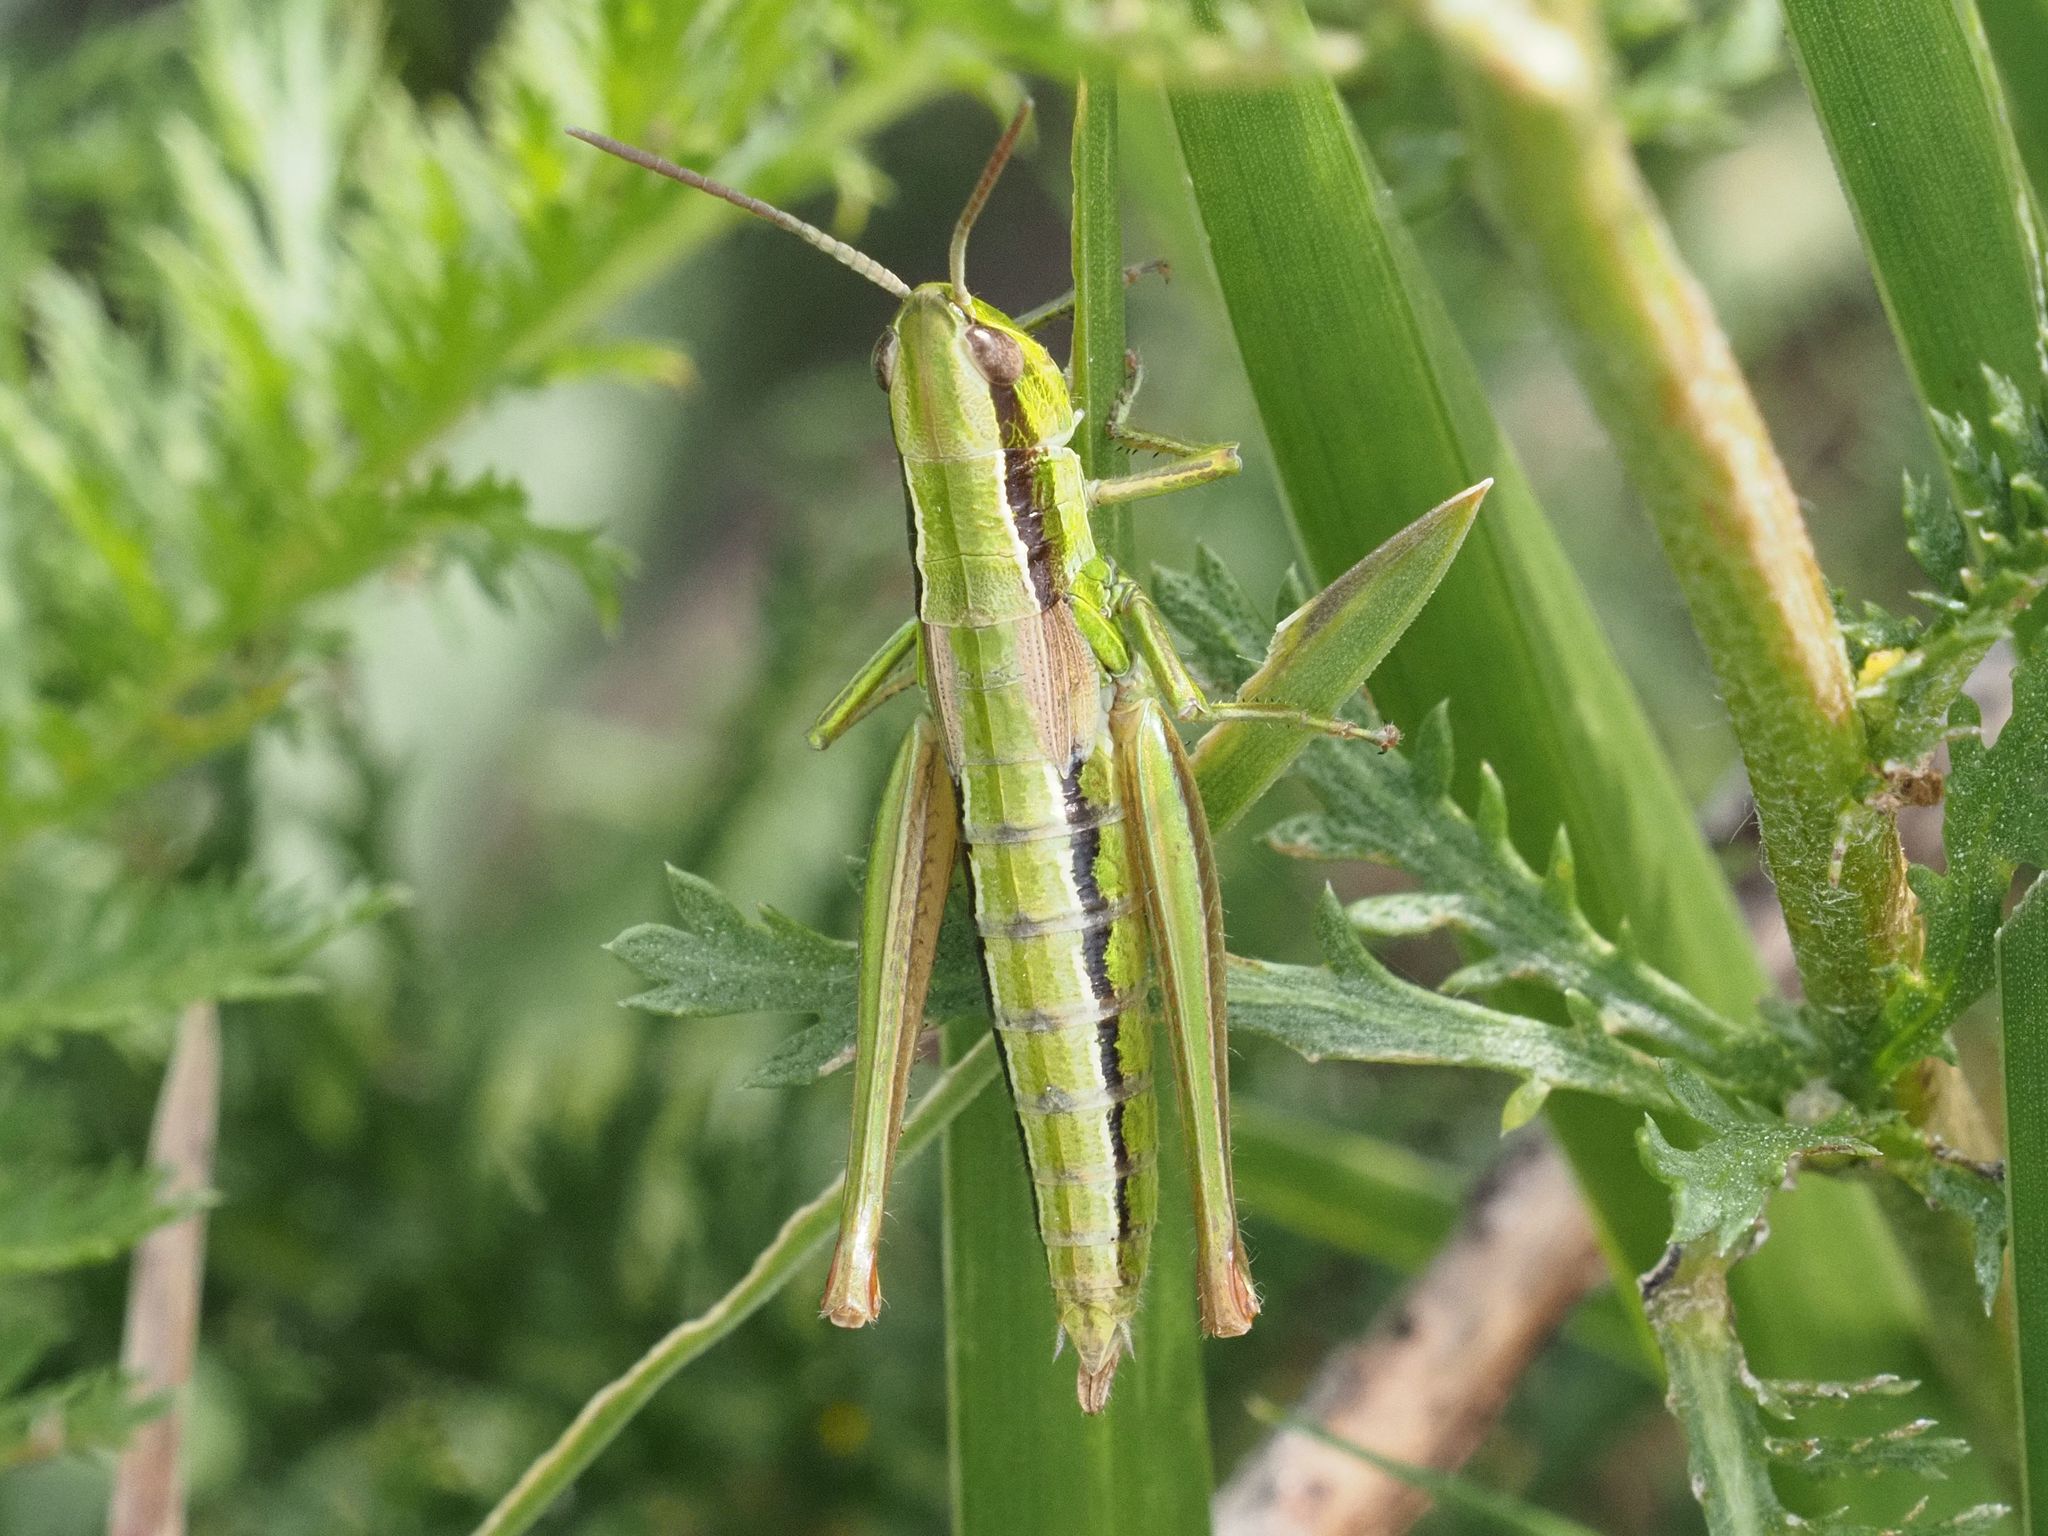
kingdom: Animalia
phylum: Arthropoda
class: Insecta
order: Orthoptera
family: Acrididae
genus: Euthystira
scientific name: Euthystira brachyptera
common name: Small gold grasshopper
